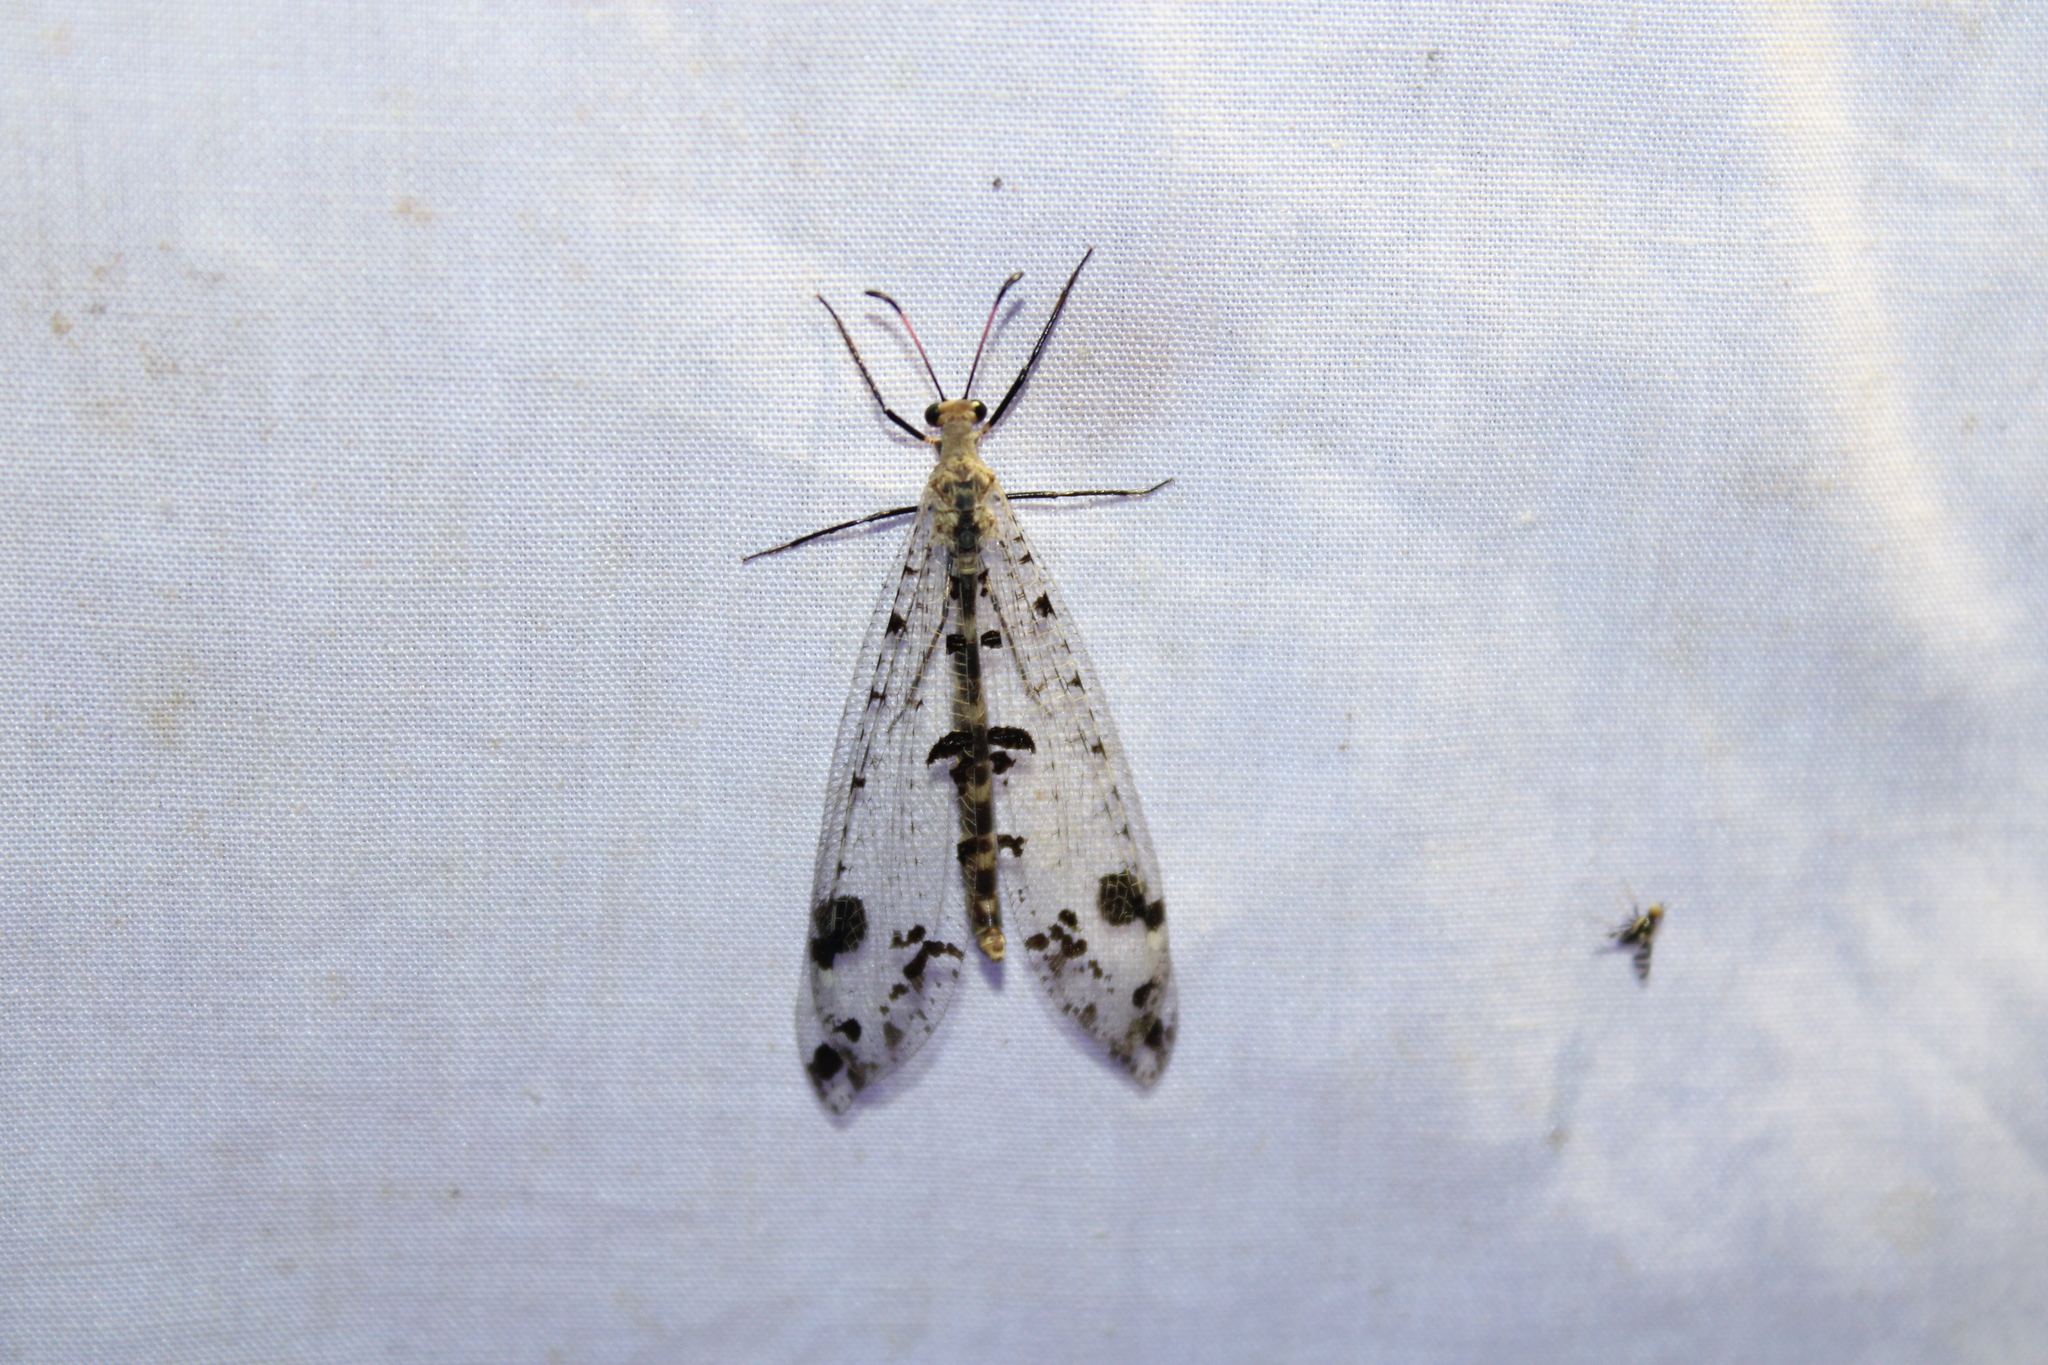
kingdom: Animalia
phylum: Arthropoda
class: Insecta
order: Neuroptera
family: Myrmeleontidae
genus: Dendroleon
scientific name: Dendroleon obsoletus
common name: Eastern spotted-winged antlion
